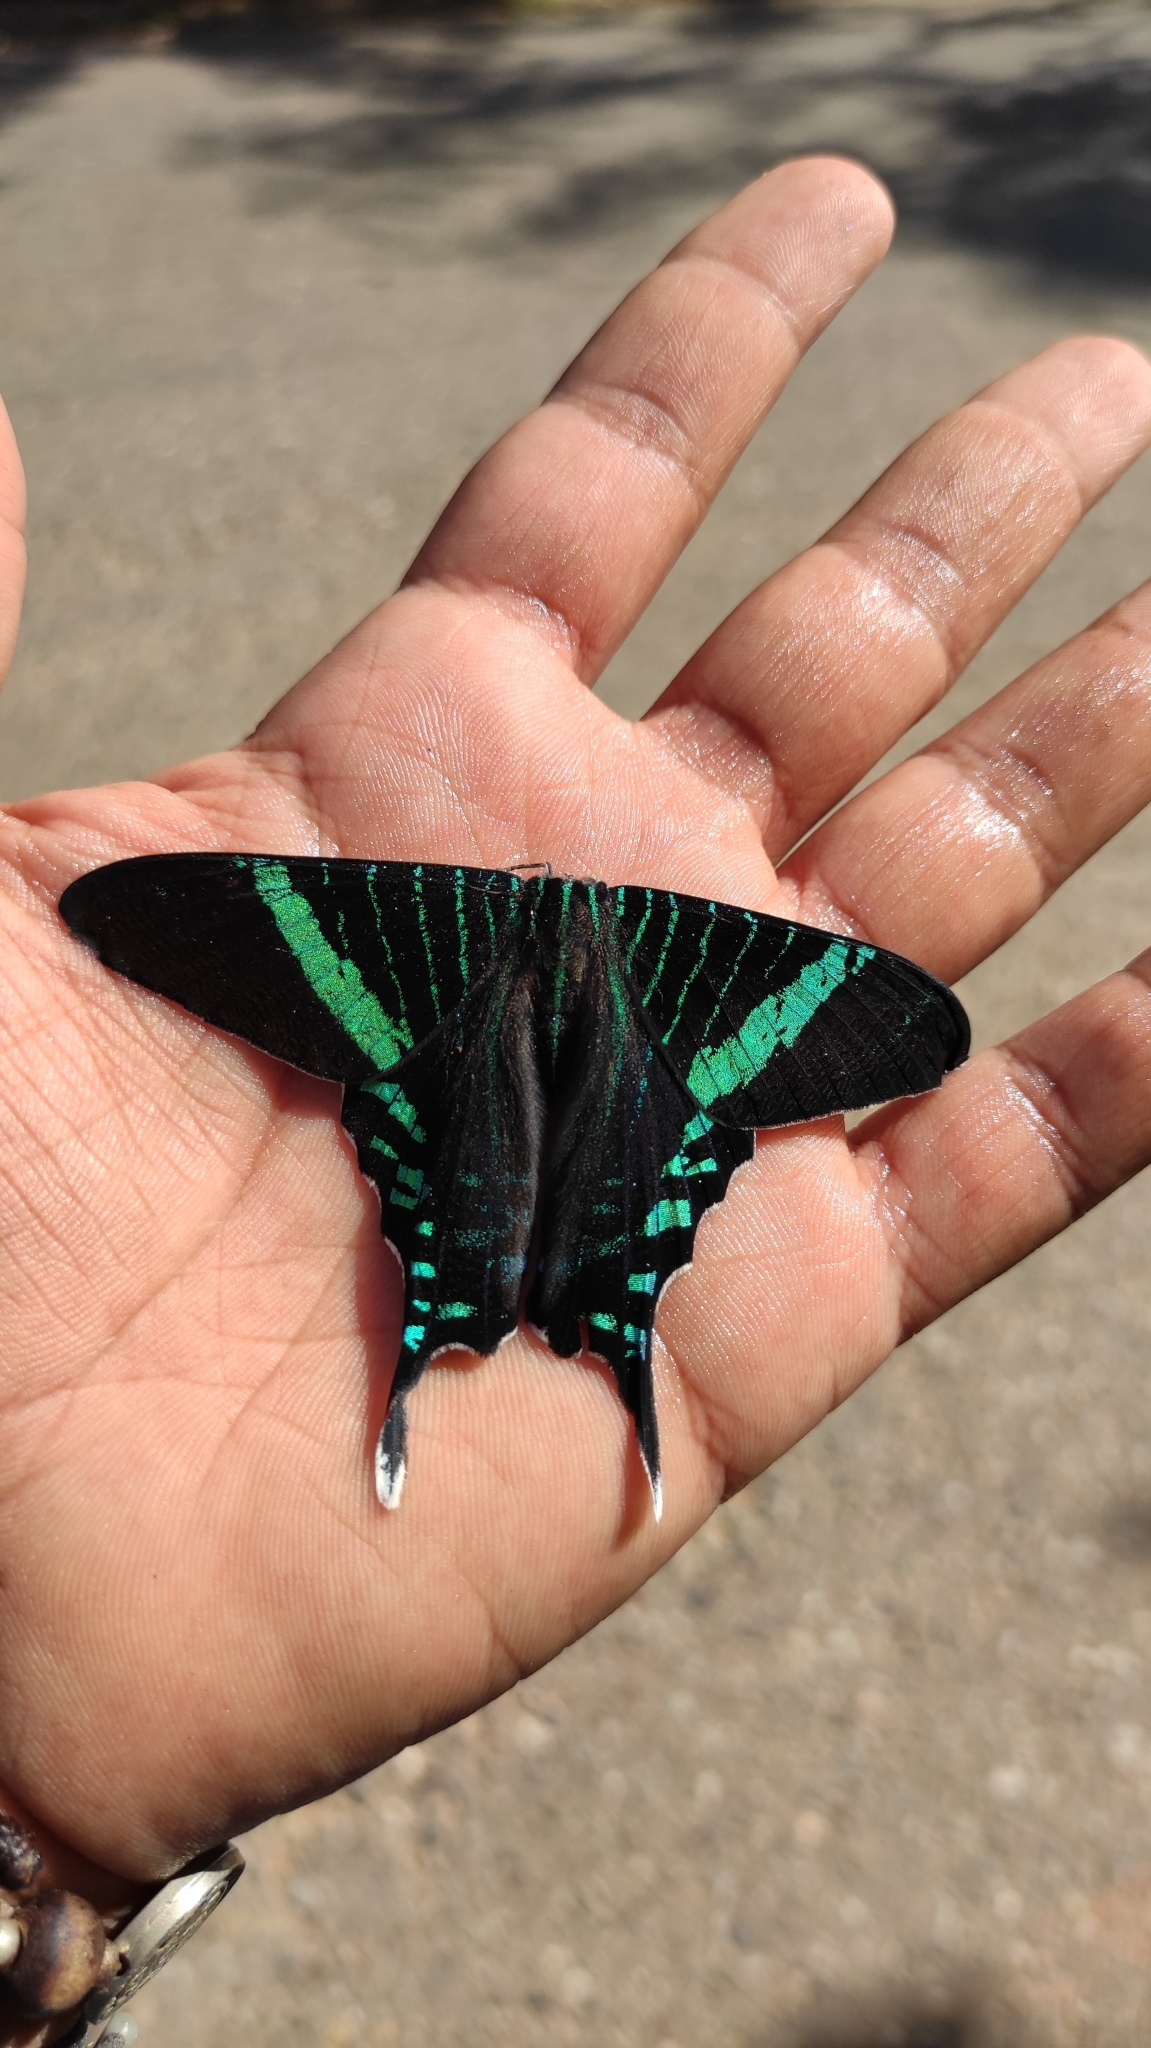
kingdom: Animalia
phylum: Arthropoda
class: Insecta
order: Lepidoptera
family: Uraniidae
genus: Urania
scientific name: Urania fulgens
